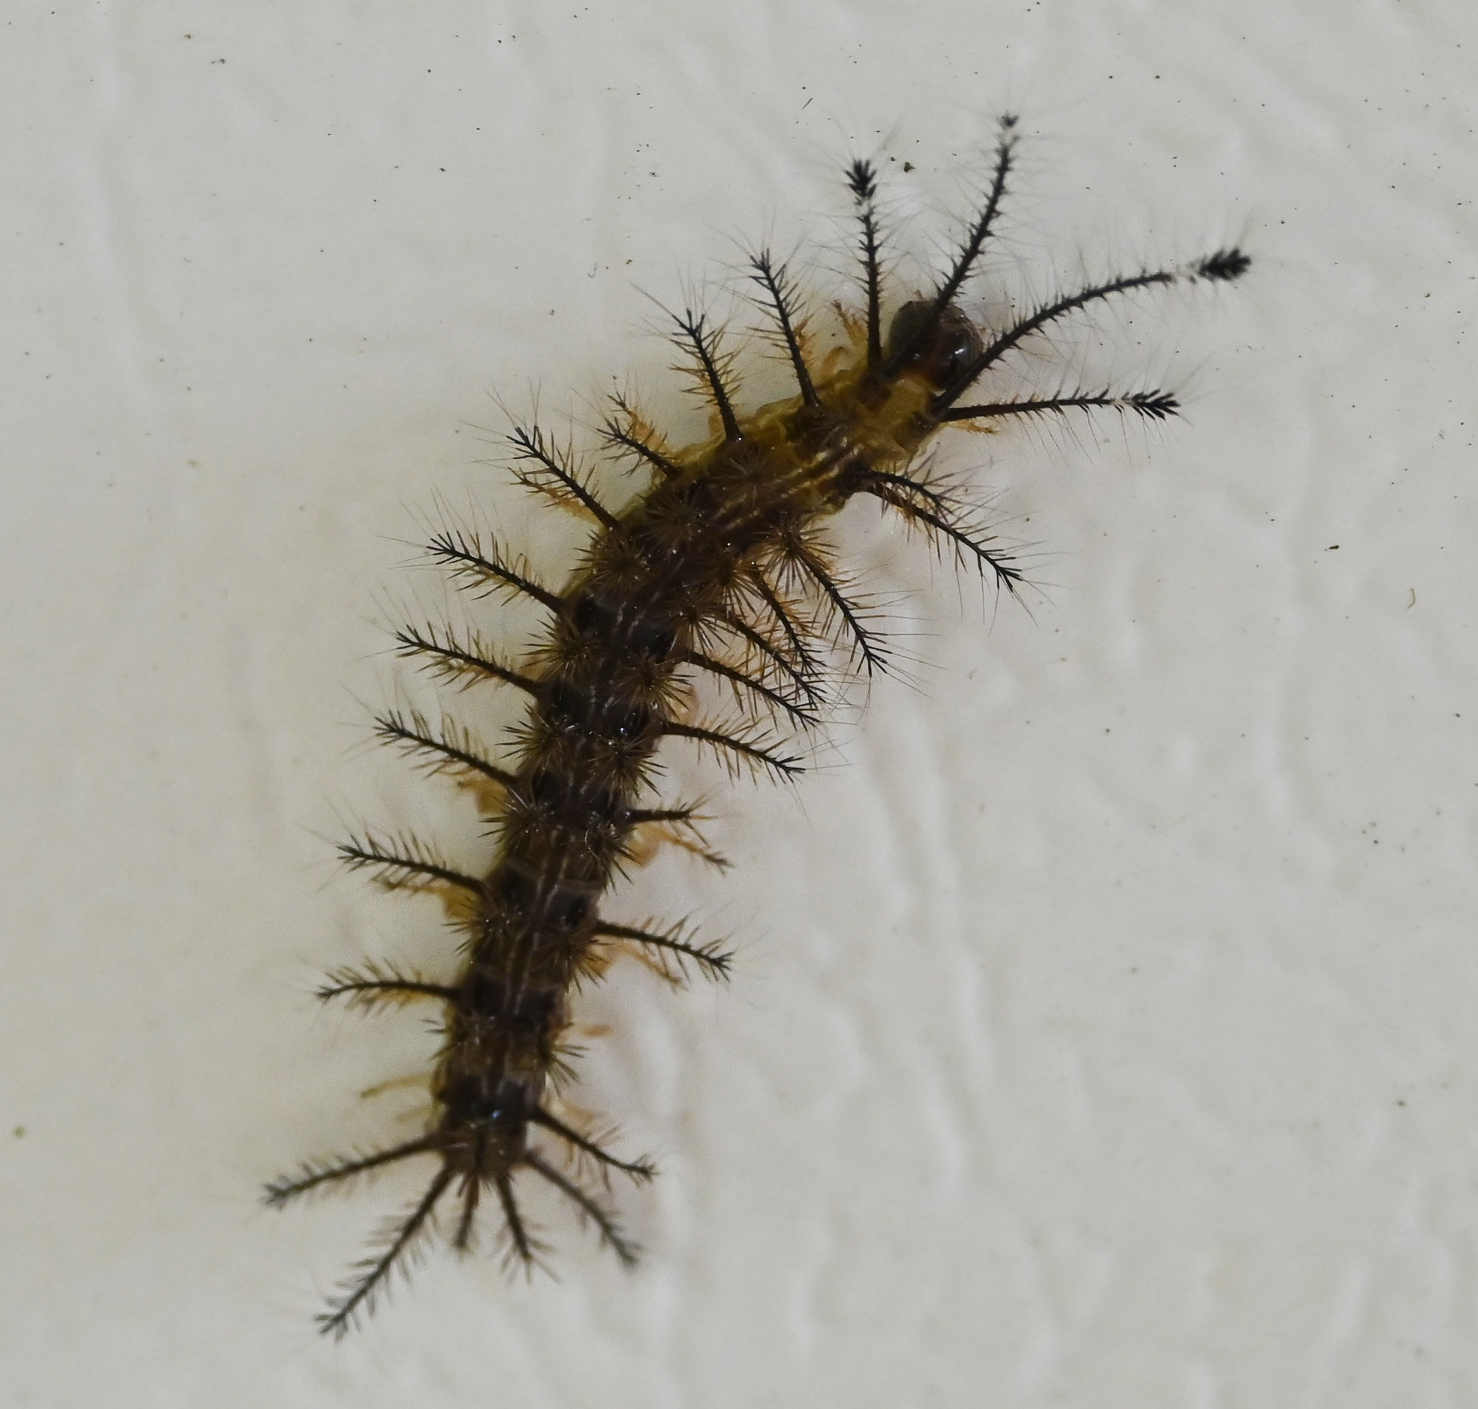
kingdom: Animalia
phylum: Arthropoda
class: Insecta
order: Lepidoptera
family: Saturniidae
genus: Hylesia
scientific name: Hylesia metabus
